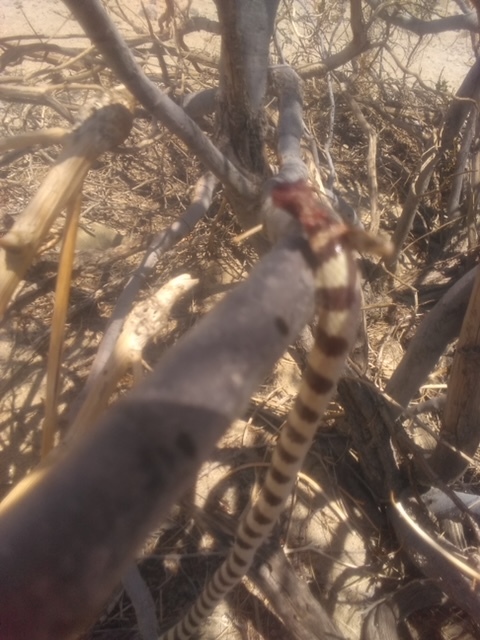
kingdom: Animalia
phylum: Chordata
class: Aves
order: Passeriformes
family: Laniidae
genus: Lanius
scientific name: Lanius ludovicianus
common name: Loggerhead shrike
